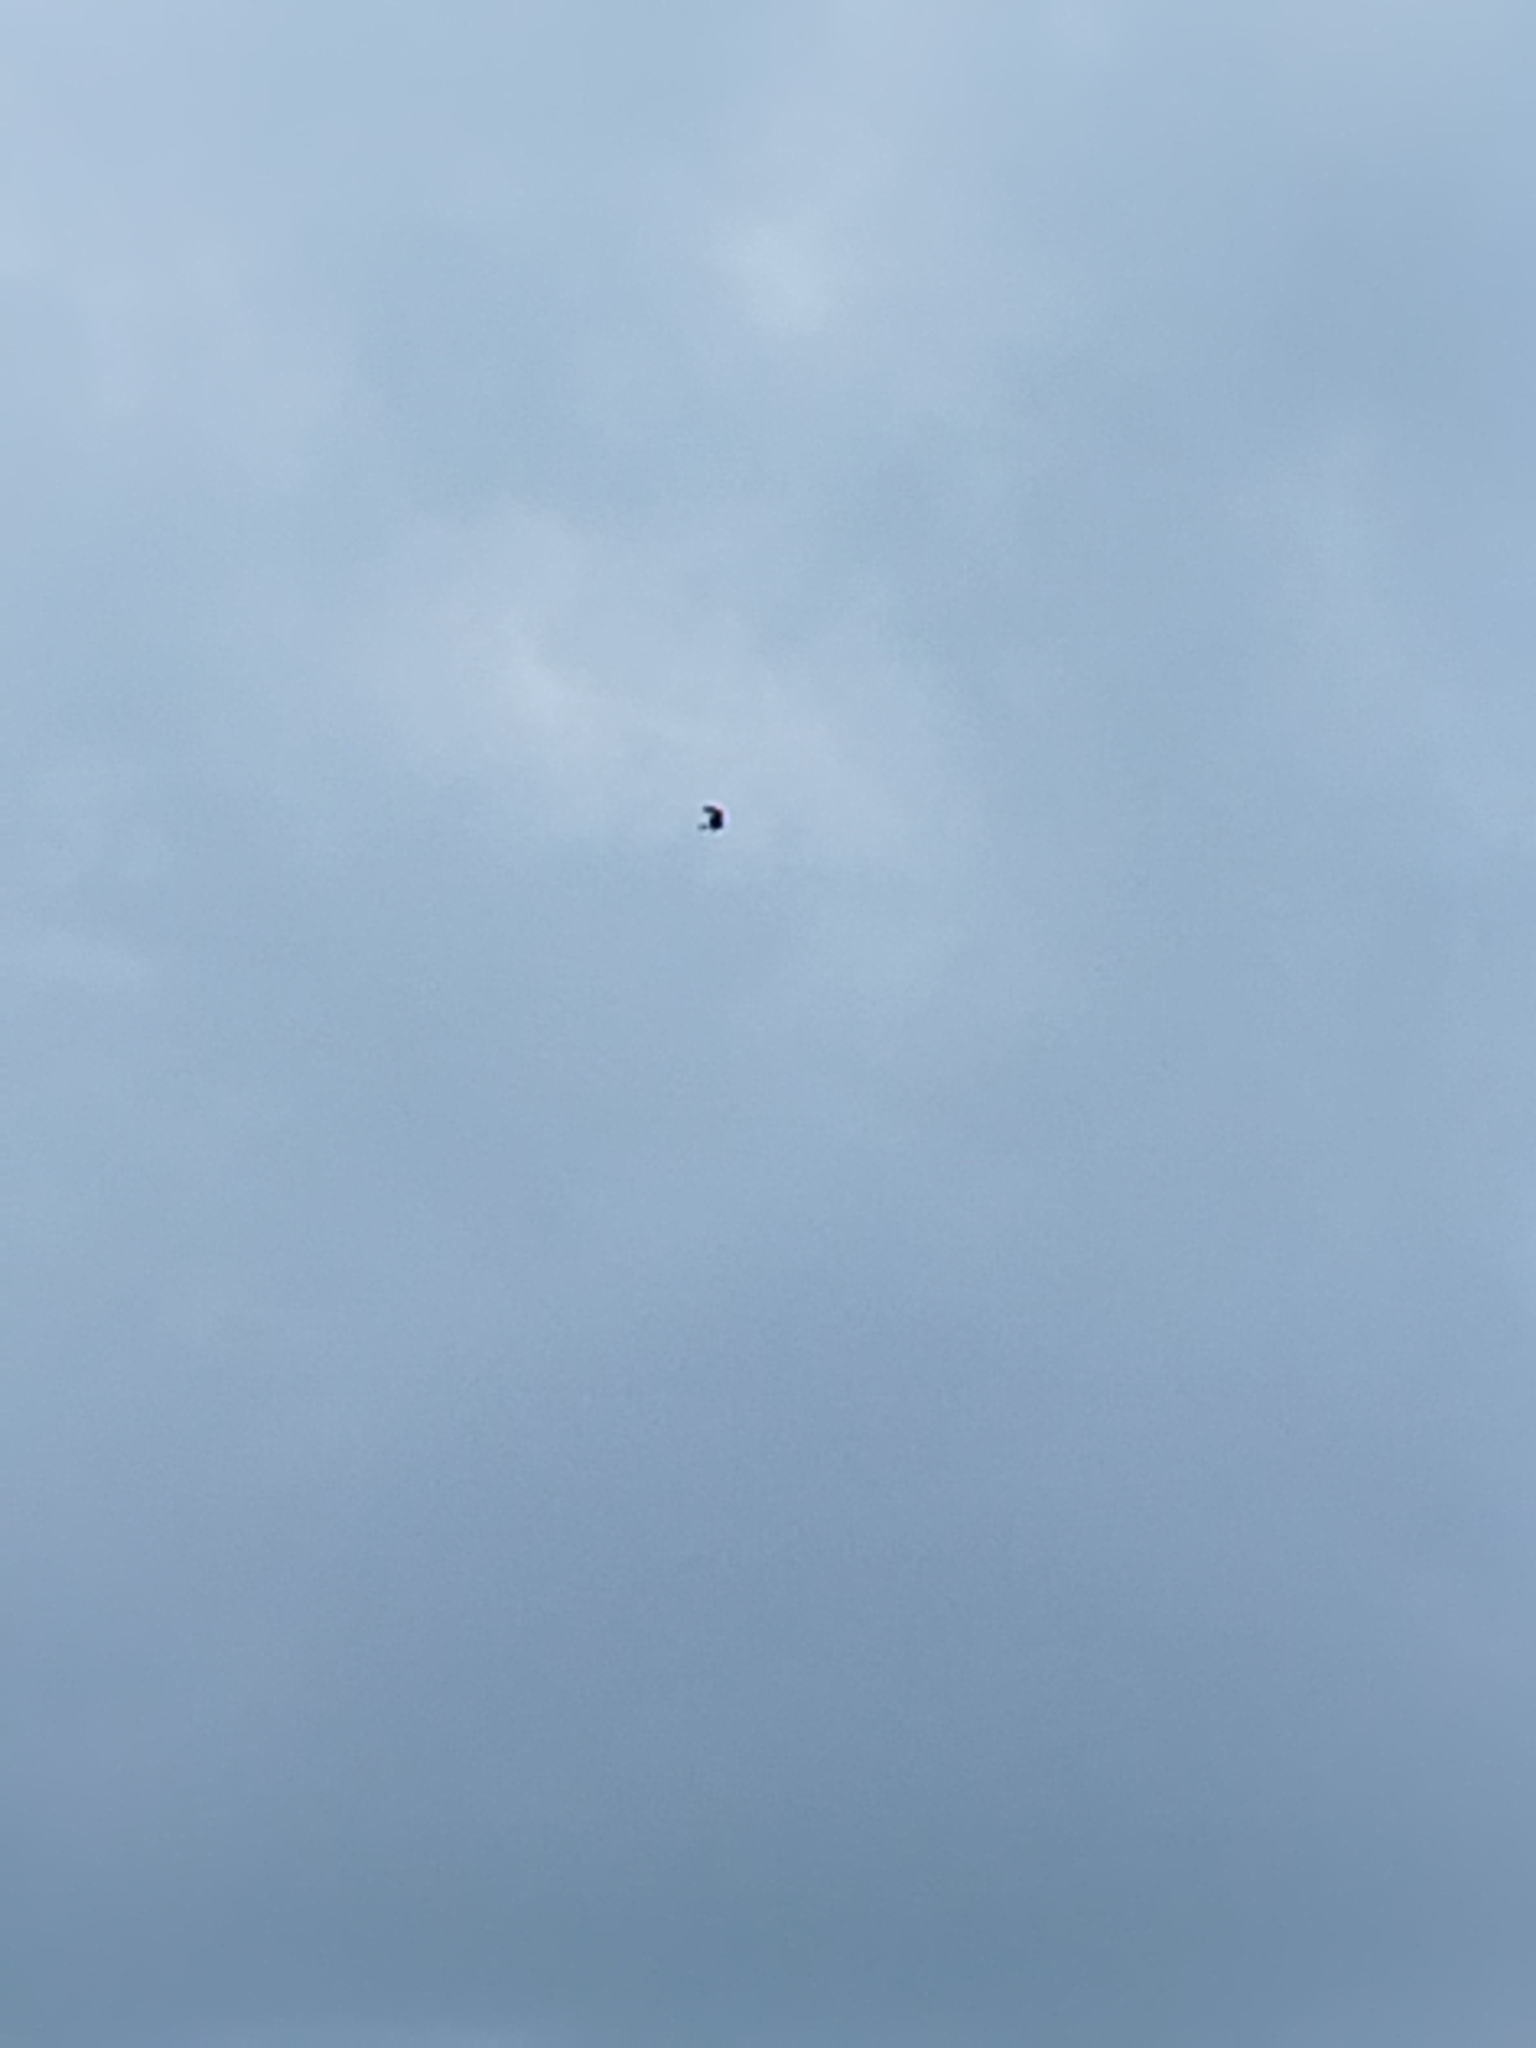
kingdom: Animalia
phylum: Chordata
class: Aves
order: Accipitriformes
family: Accipitridae
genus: Milvus
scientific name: Milvus milvus
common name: Red kite
